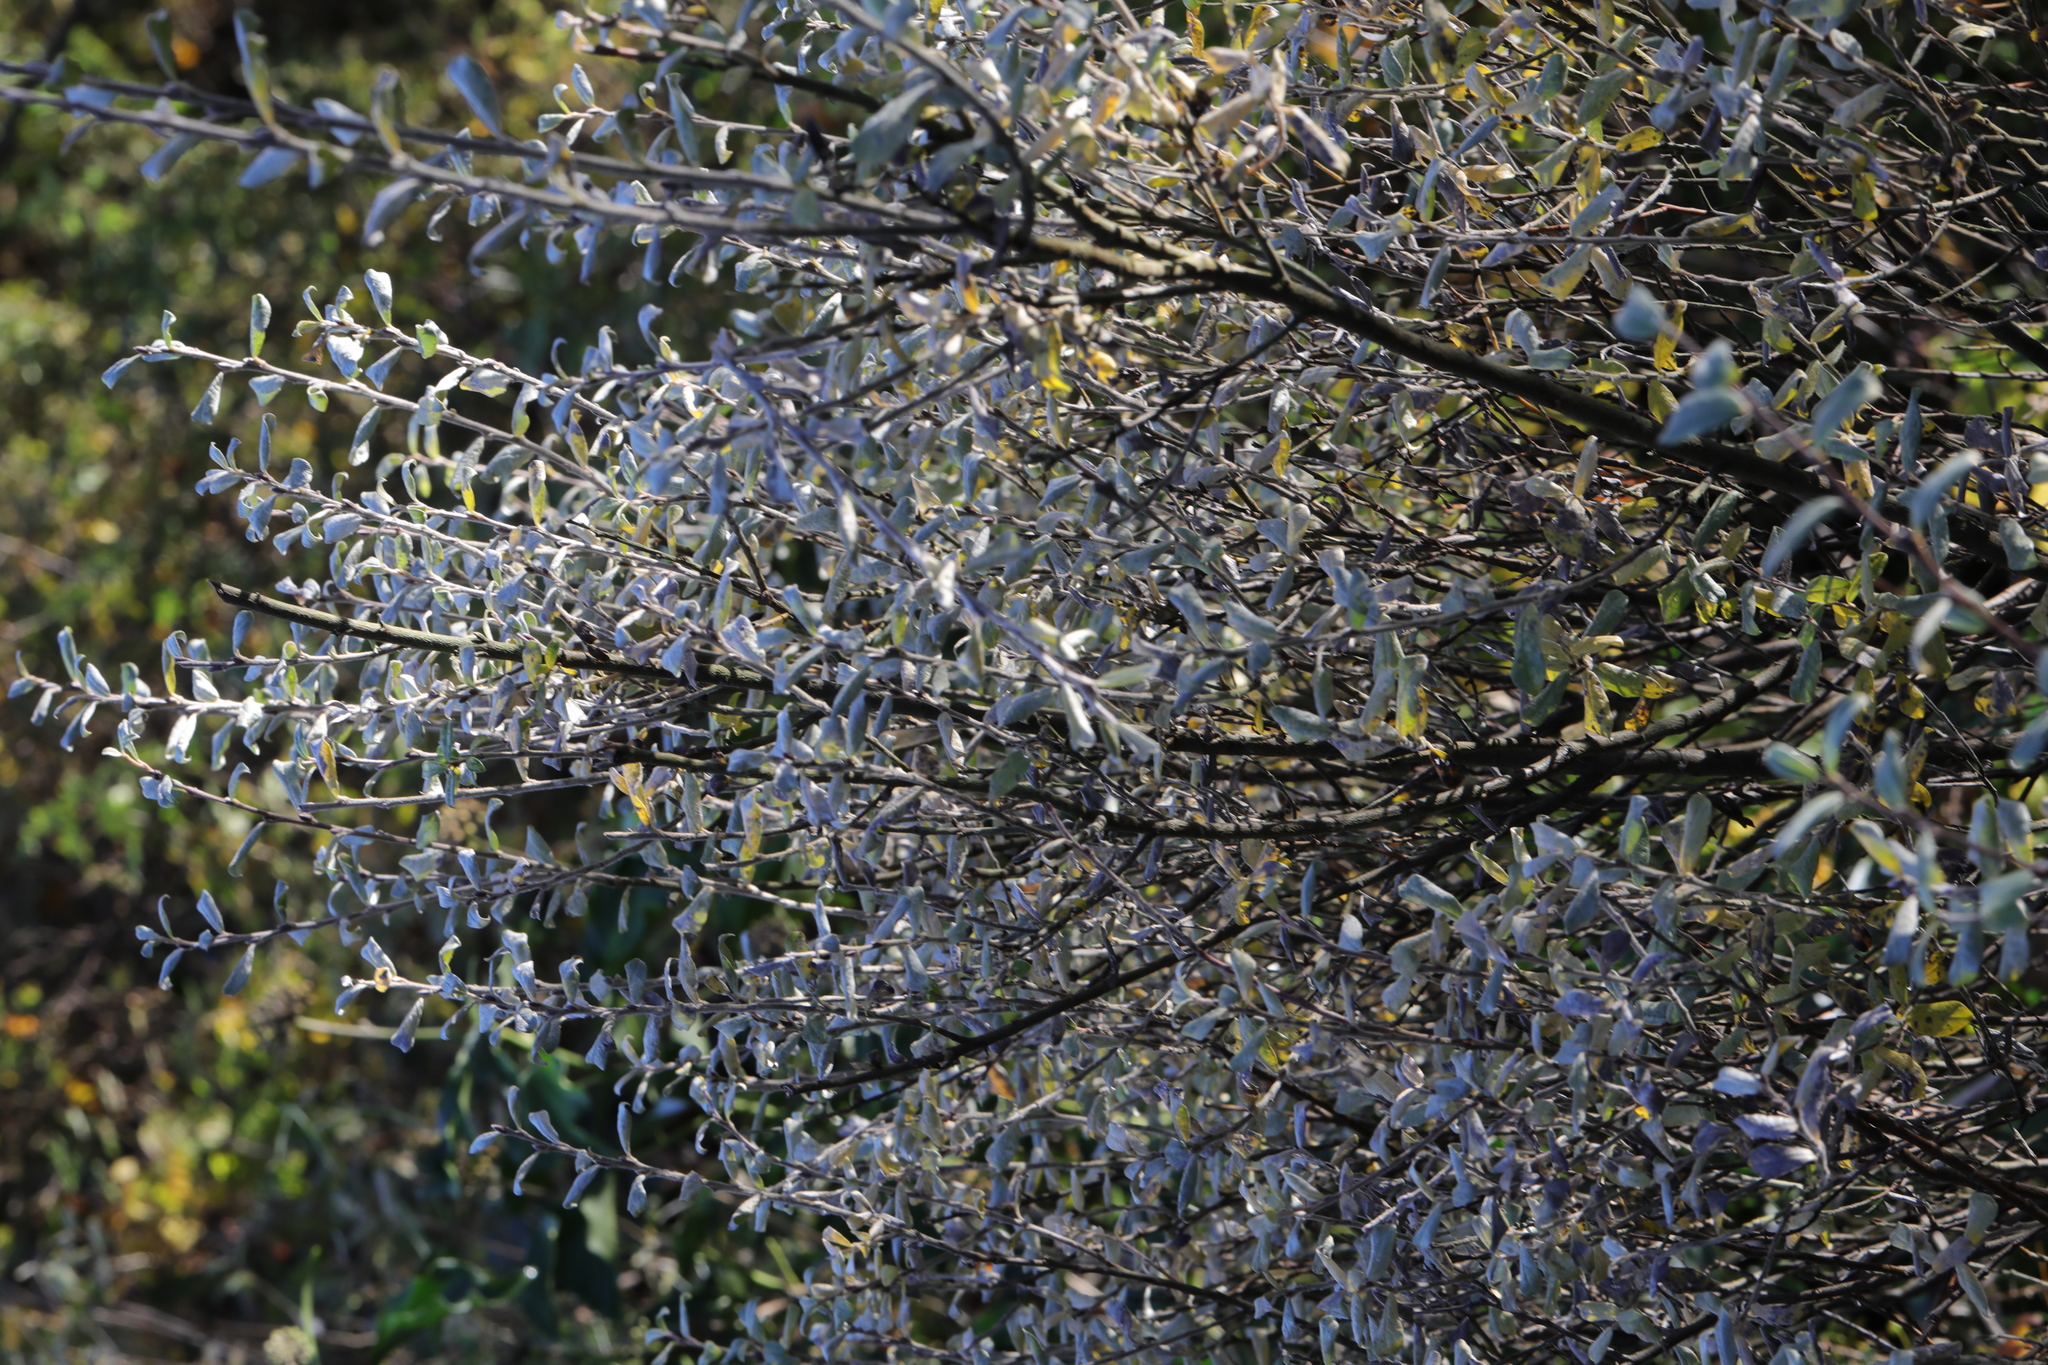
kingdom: Plantae
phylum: Tracheophyta
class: Magnoliopsida
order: Malpighiales
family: Salicaceae
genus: Salix
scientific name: Salix repens
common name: Creeping willow
